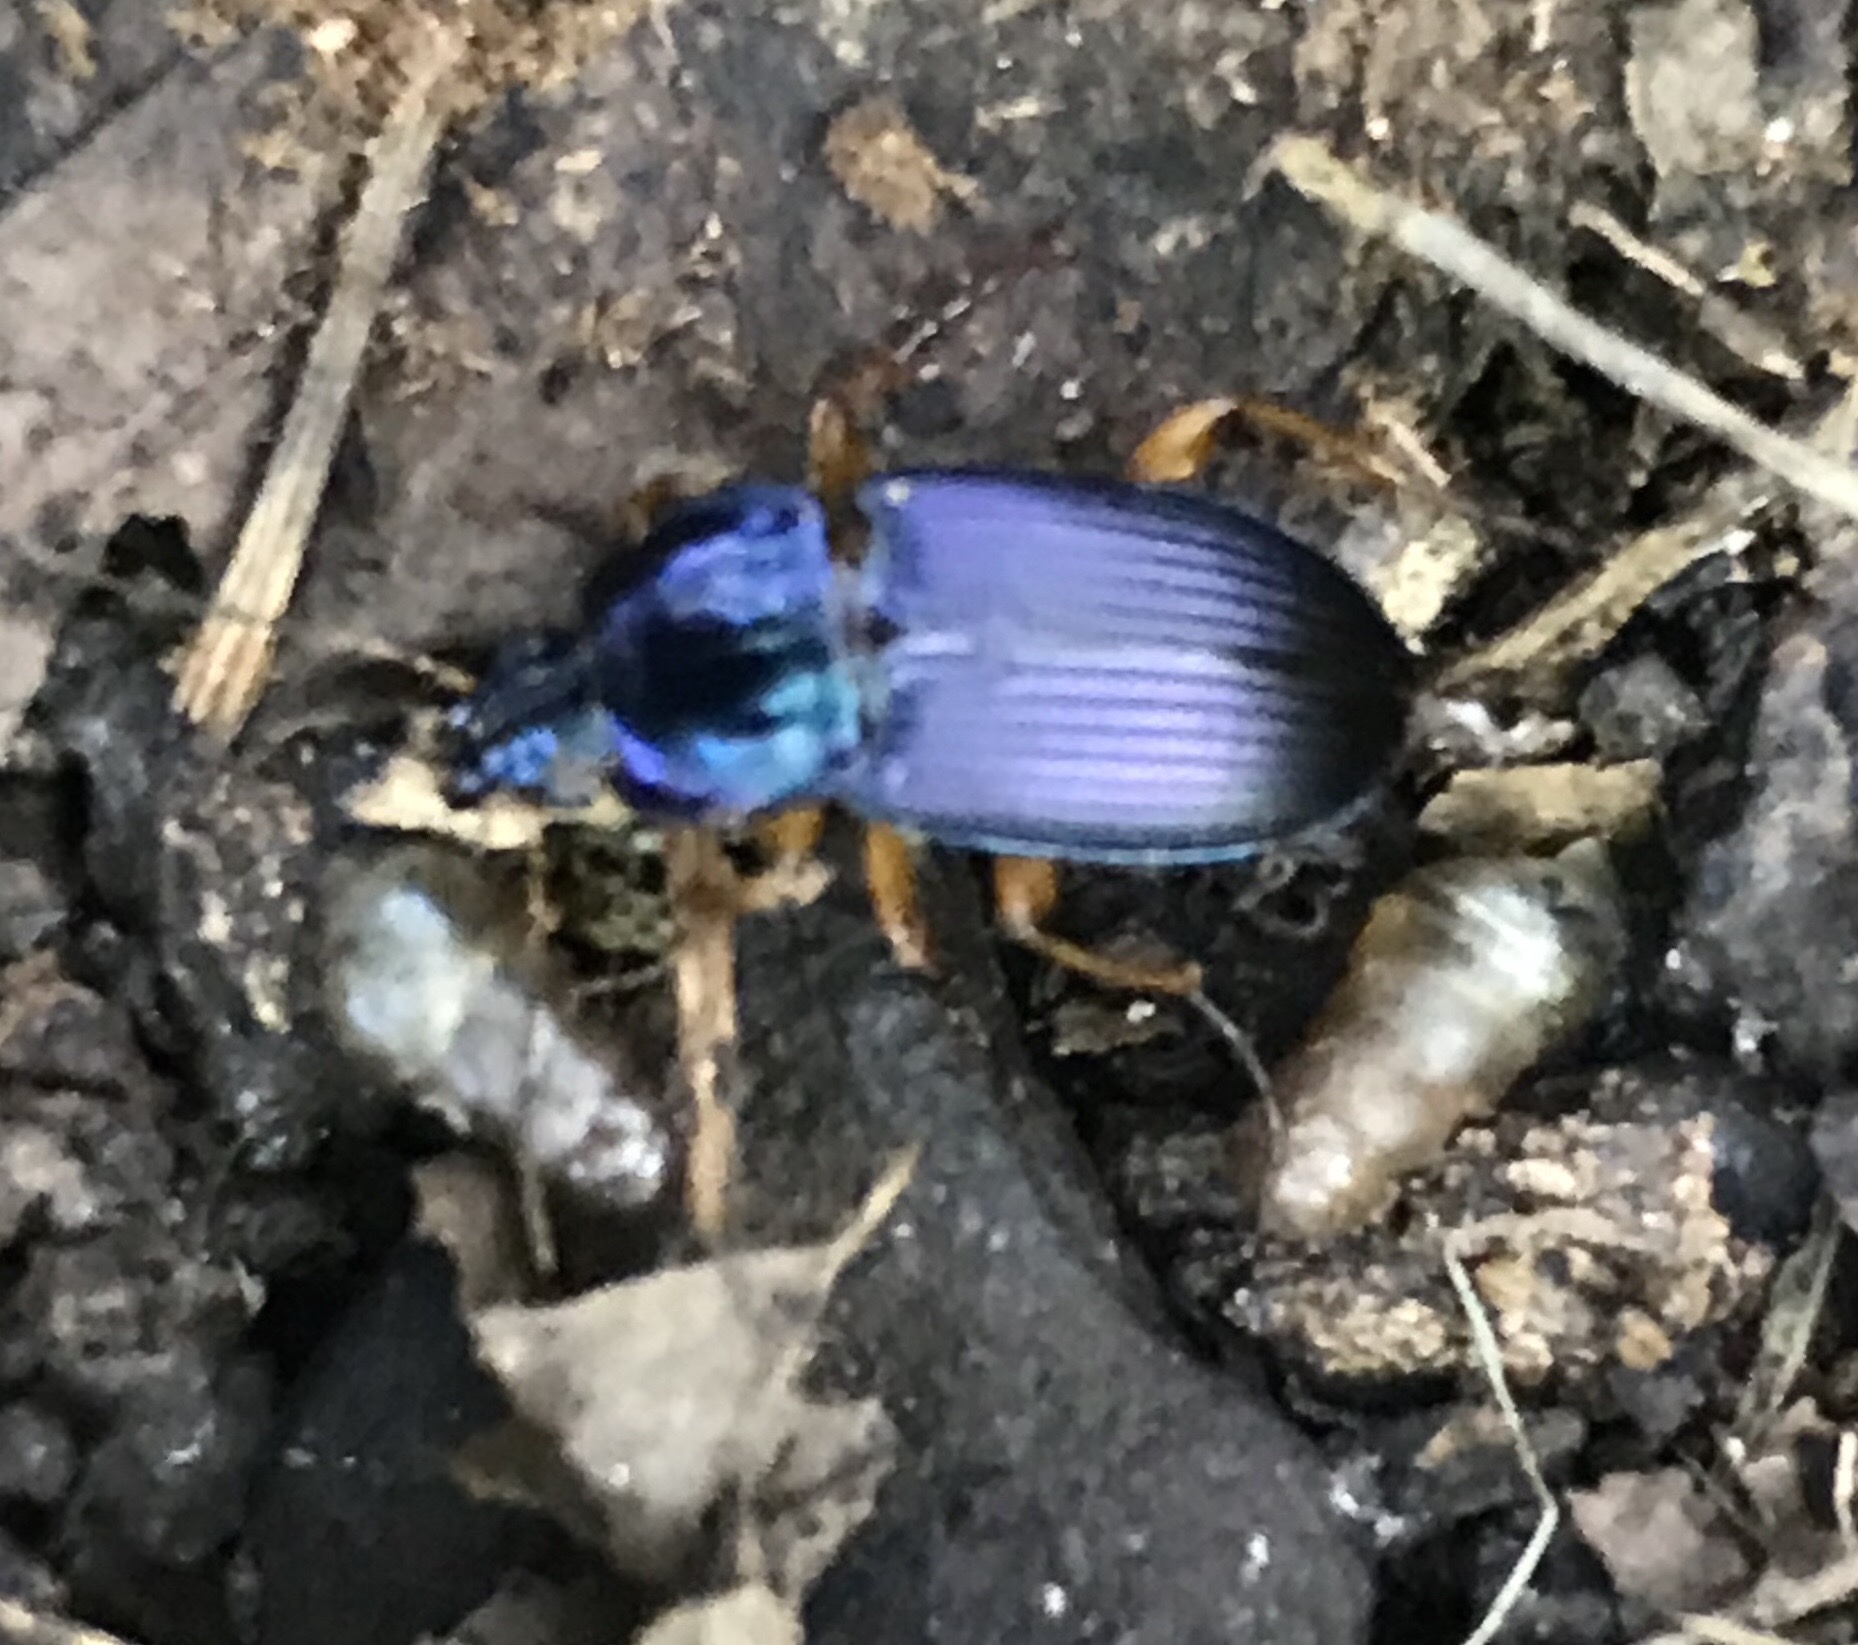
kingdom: Animalia
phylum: Arthropoda
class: Insecta
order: Coleoptera
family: Carabidae
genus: Poecilus
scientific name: Poecilus lucublandus
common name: Woodland ground beetle
